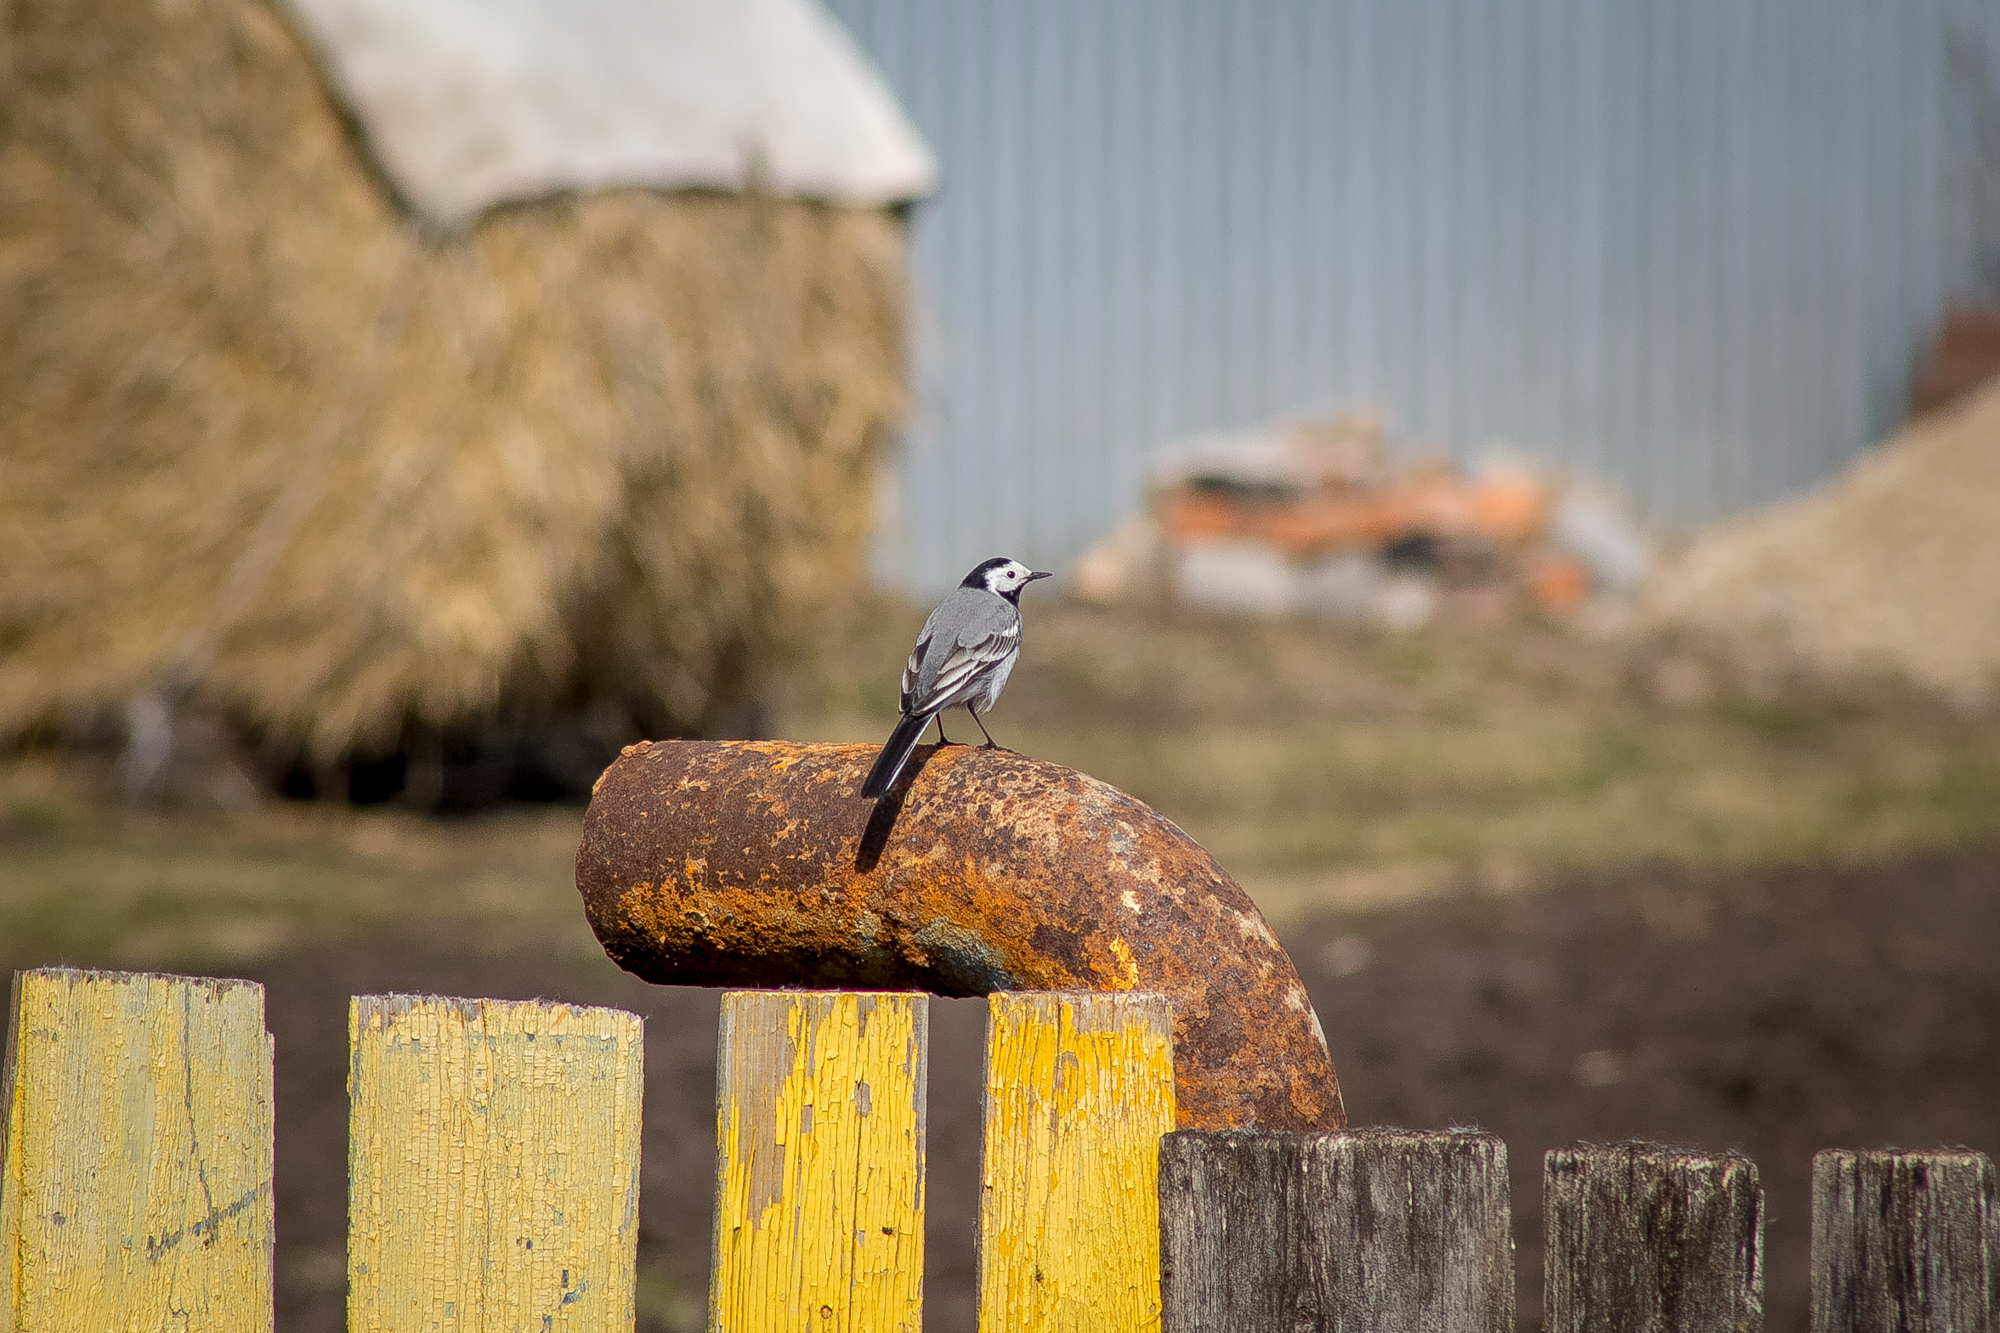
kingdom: Animalia
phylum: Chordata
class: Aves
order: Passeriformes
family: Motacillidae
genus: Motacilla
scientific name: Motacilla alba
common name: White wagtail
